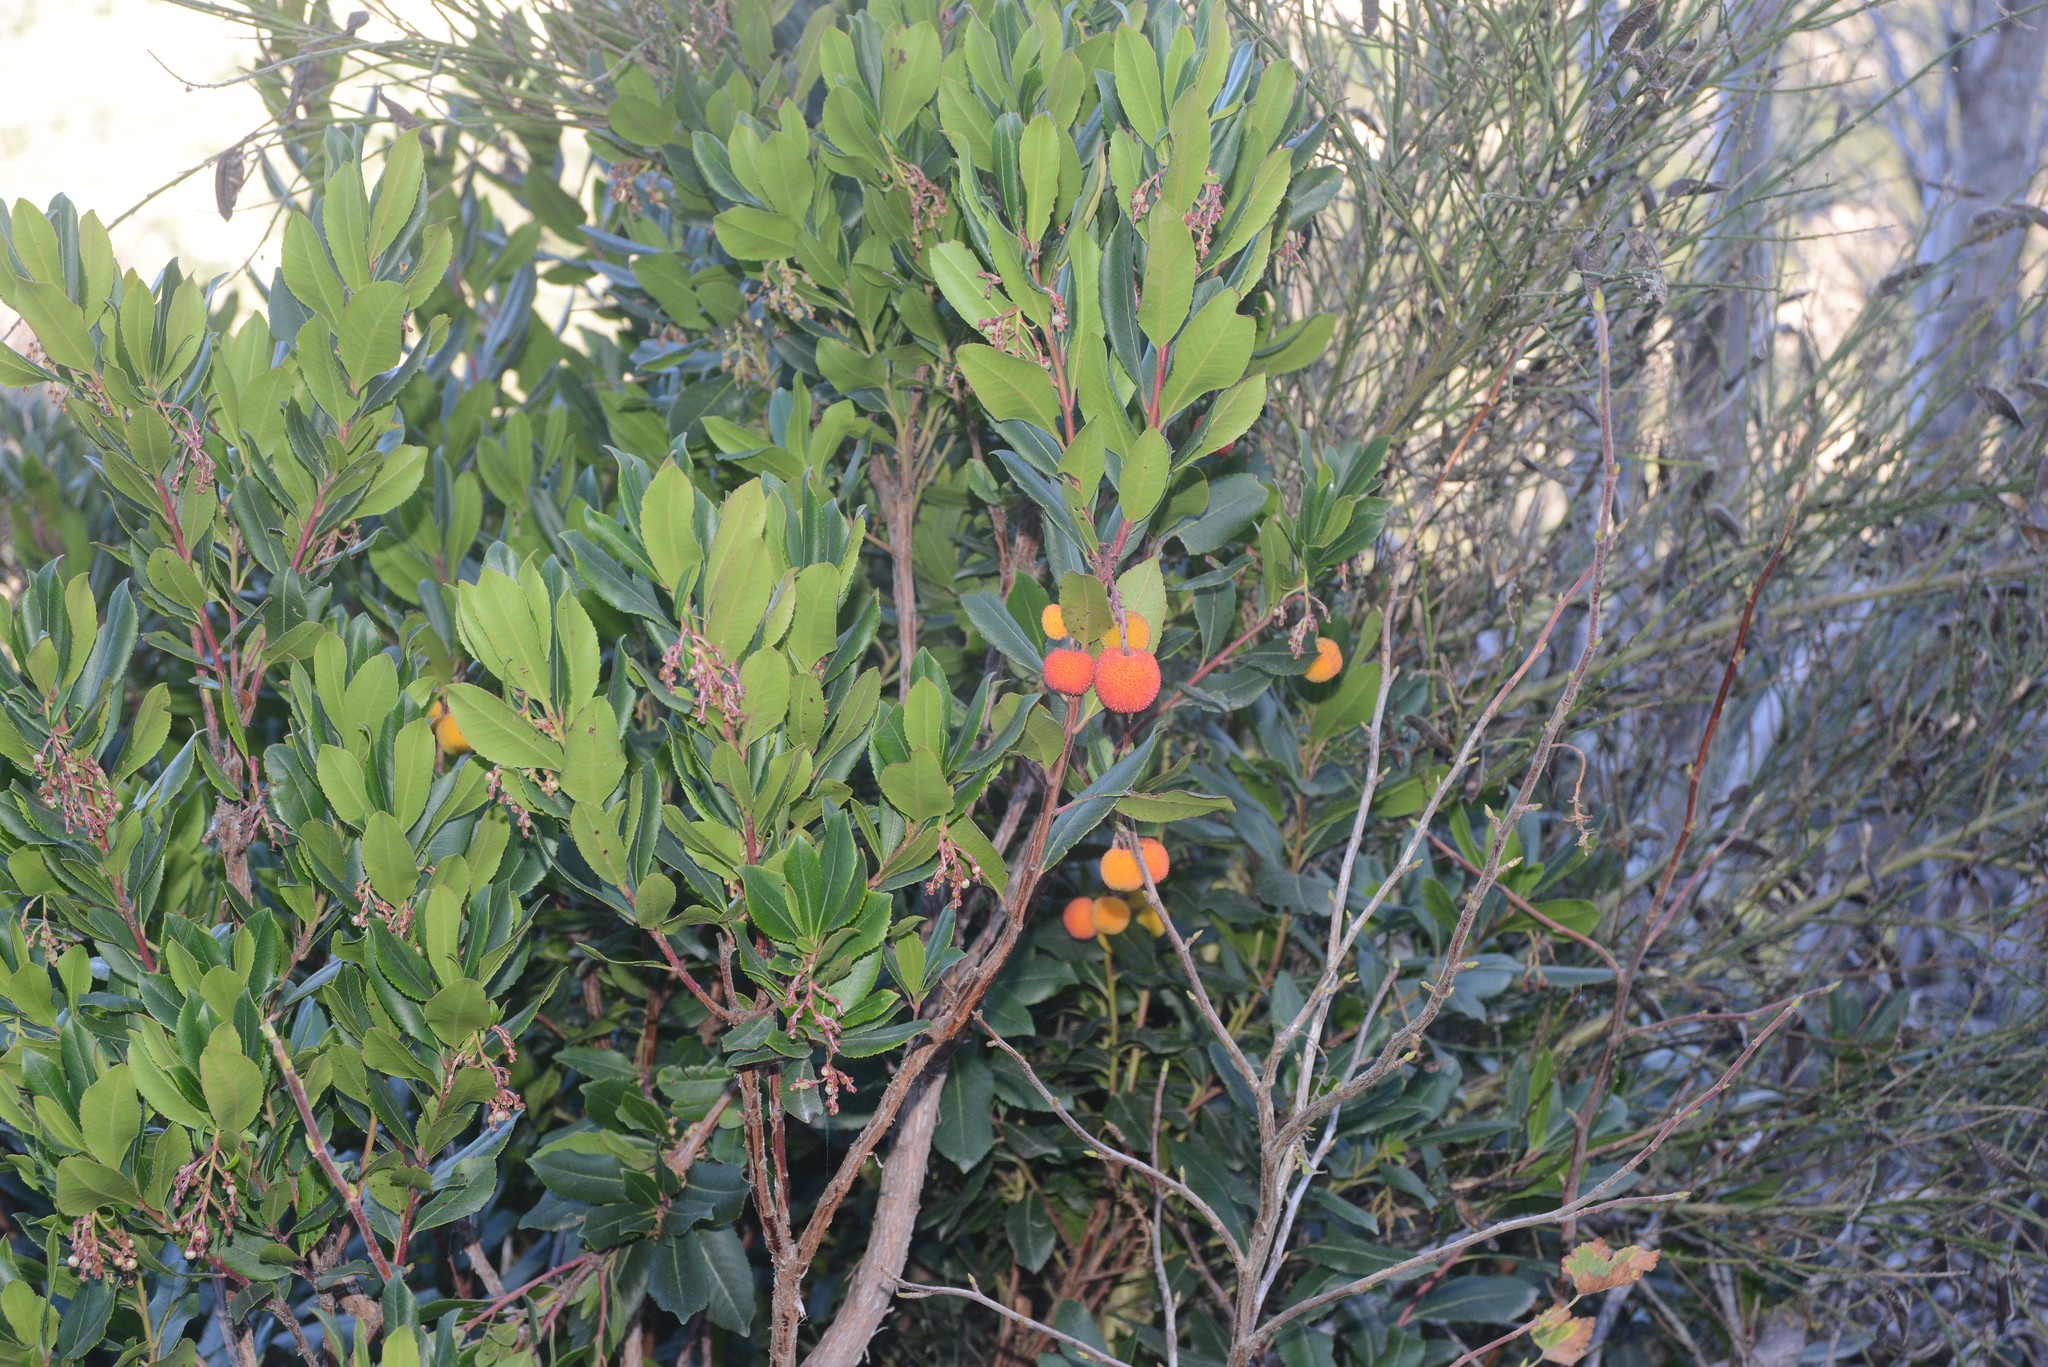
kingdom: Plantae
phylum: Tracheophyta
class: Magnoliopsida
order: Ericales
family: Ericaceae
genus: Arbutus
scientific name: Arbutus unedo
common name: Strawberry-tree
